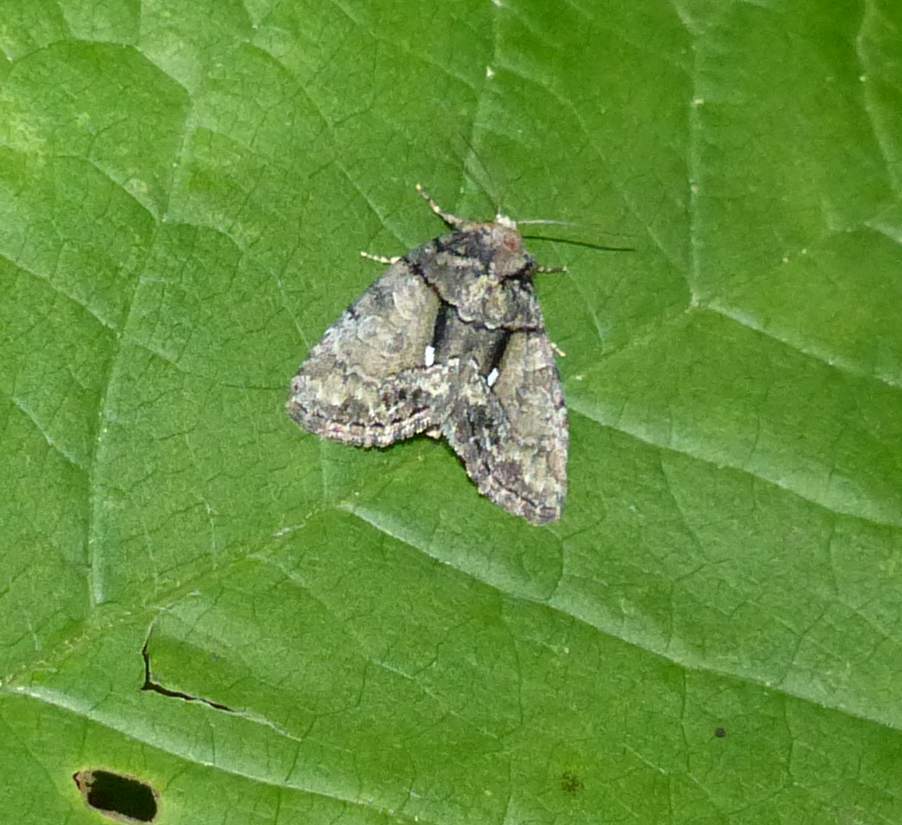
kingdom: Animalia
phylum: Arthropoda
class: Insecta
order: Lepidoptera
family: Noctuidae
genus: Chytonix
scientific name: Chytonix palliatricula
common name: Cloaked marvel
